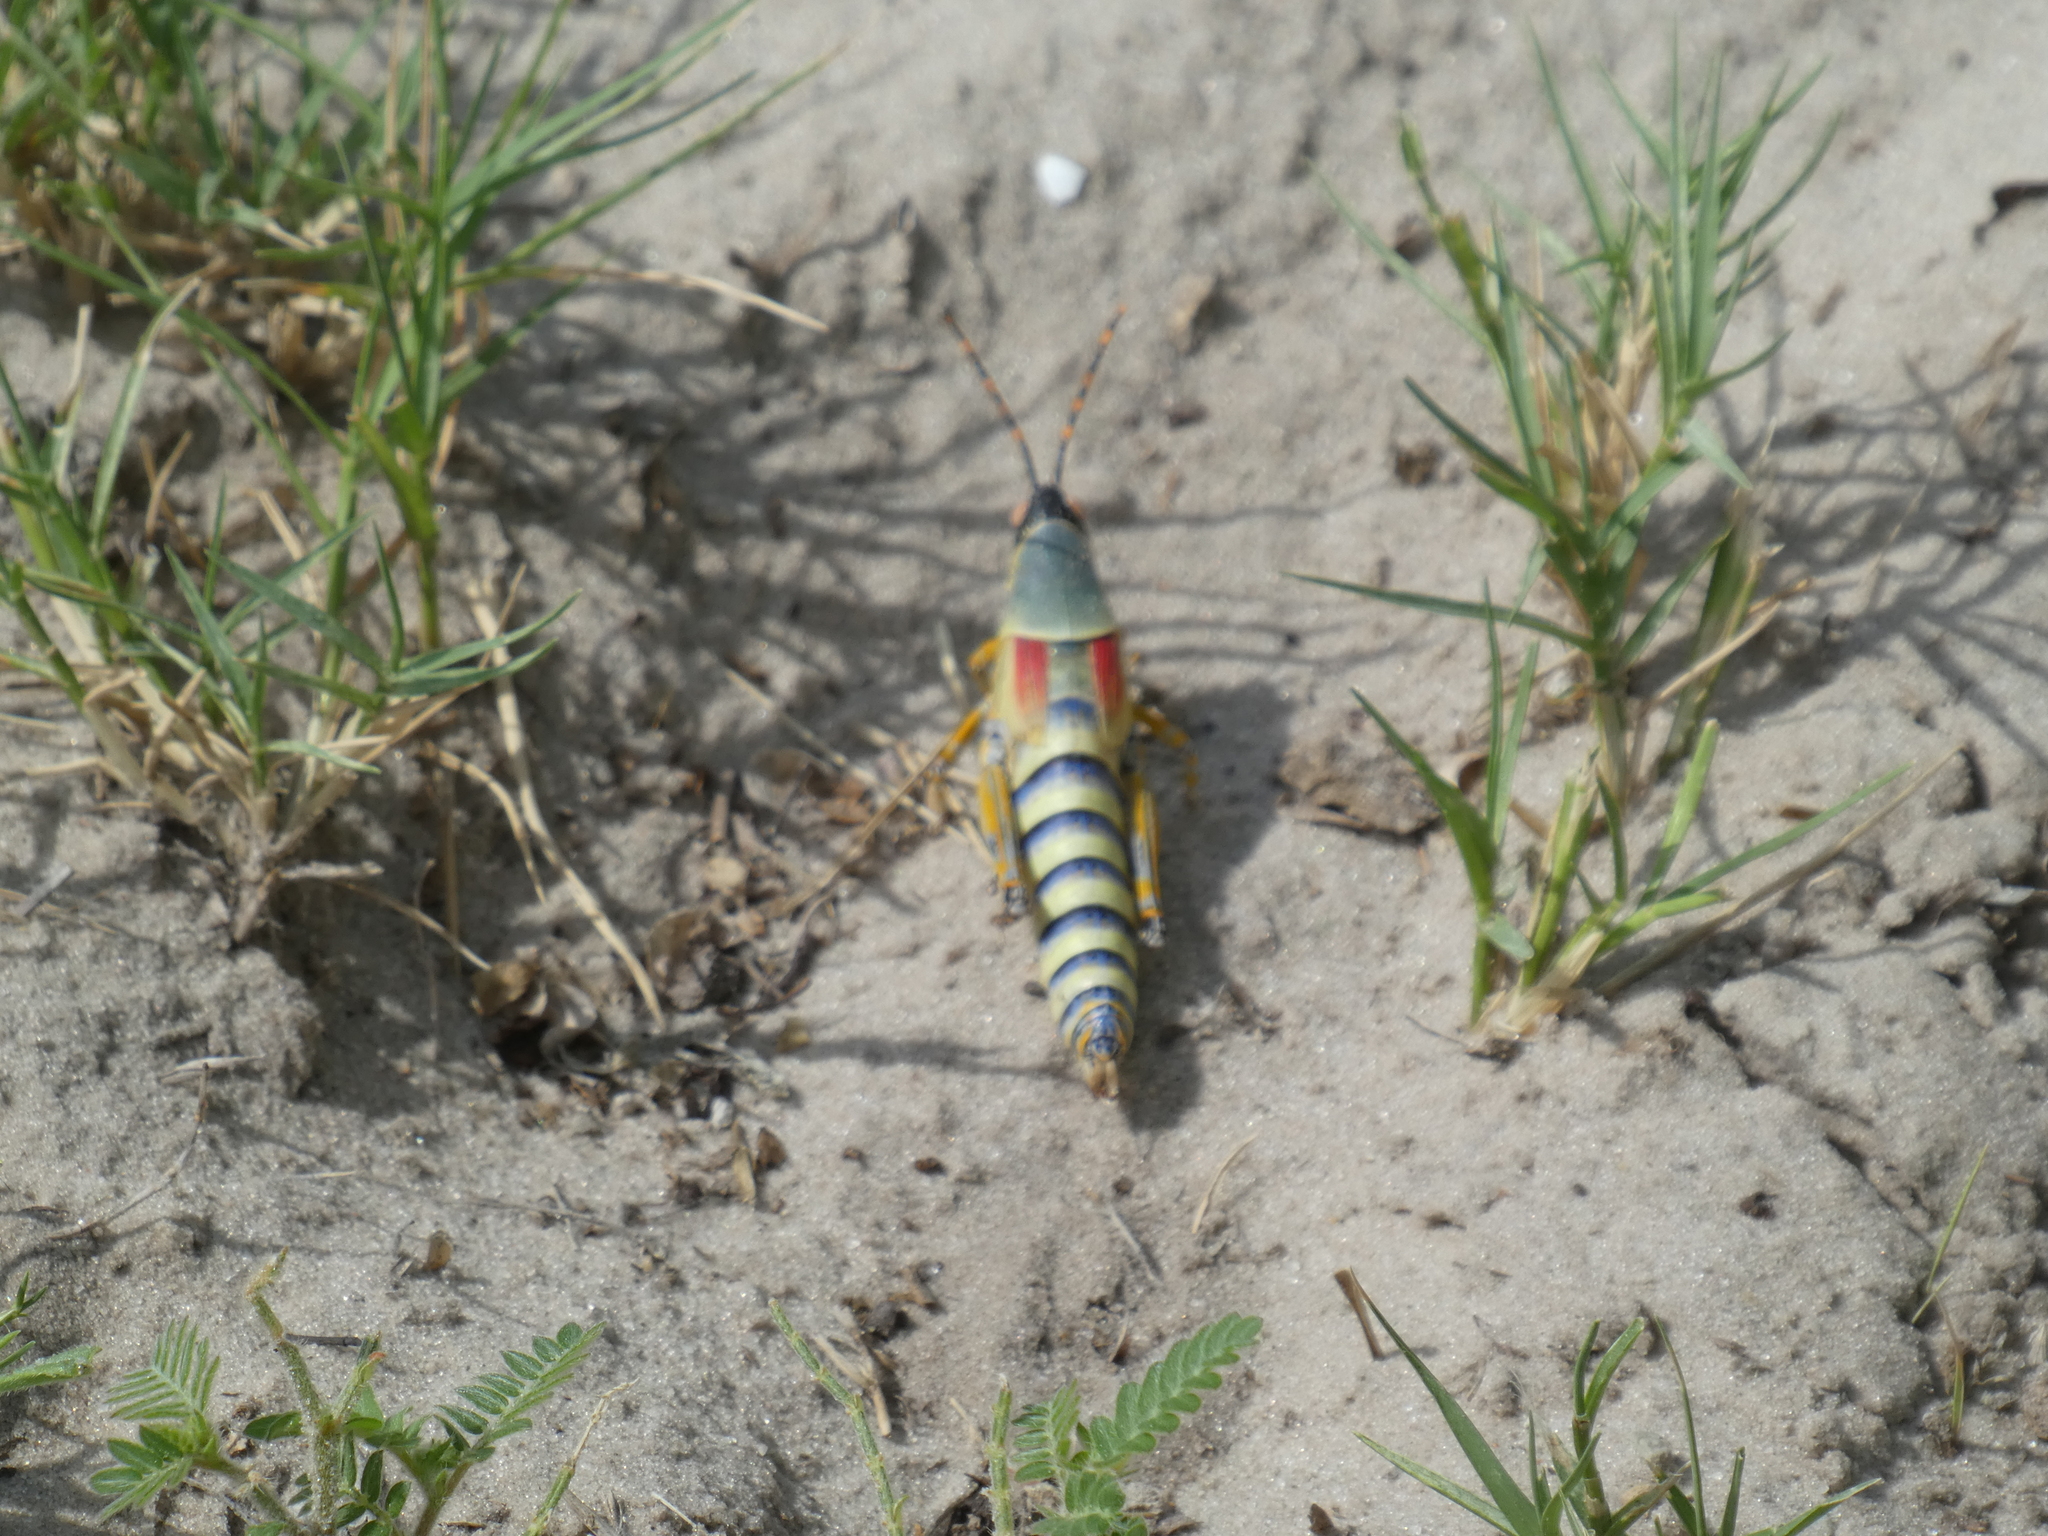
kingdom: Animalia
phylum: Arthropoda
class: Insecta
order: Orthoptera
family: Pyrgomorphidae
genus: Zonocerus
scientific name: Zonocerus elegans
